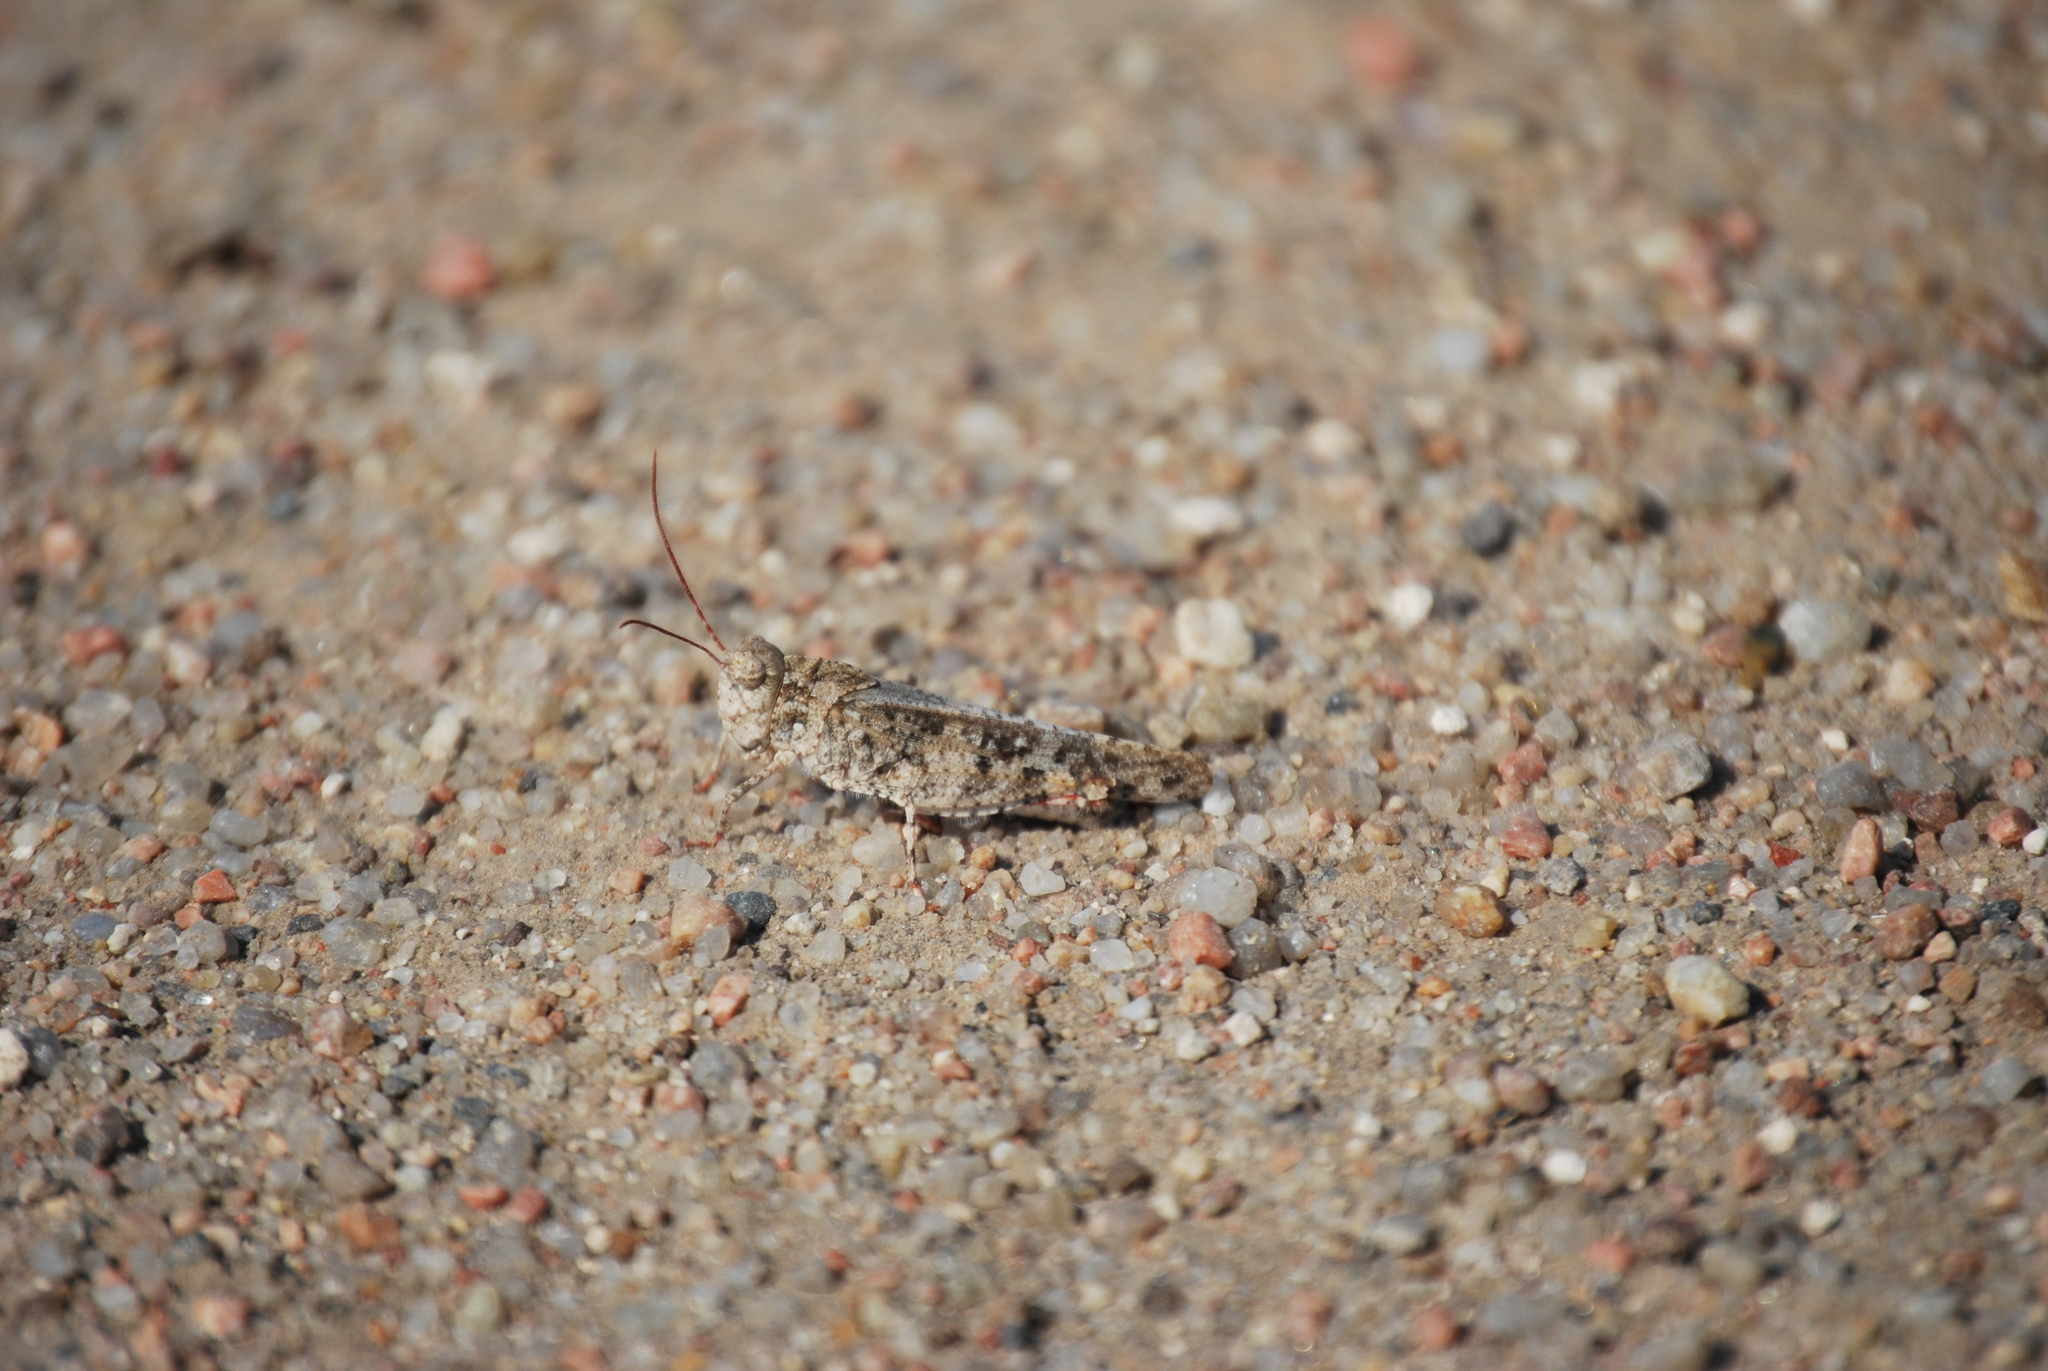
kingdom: Animalia
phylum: Arthropoda
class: Insecta
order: Orthoptera
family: Acrididae
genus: Spharagemon
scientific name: Spharagemon collare
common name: Mottled sand grasshopper
